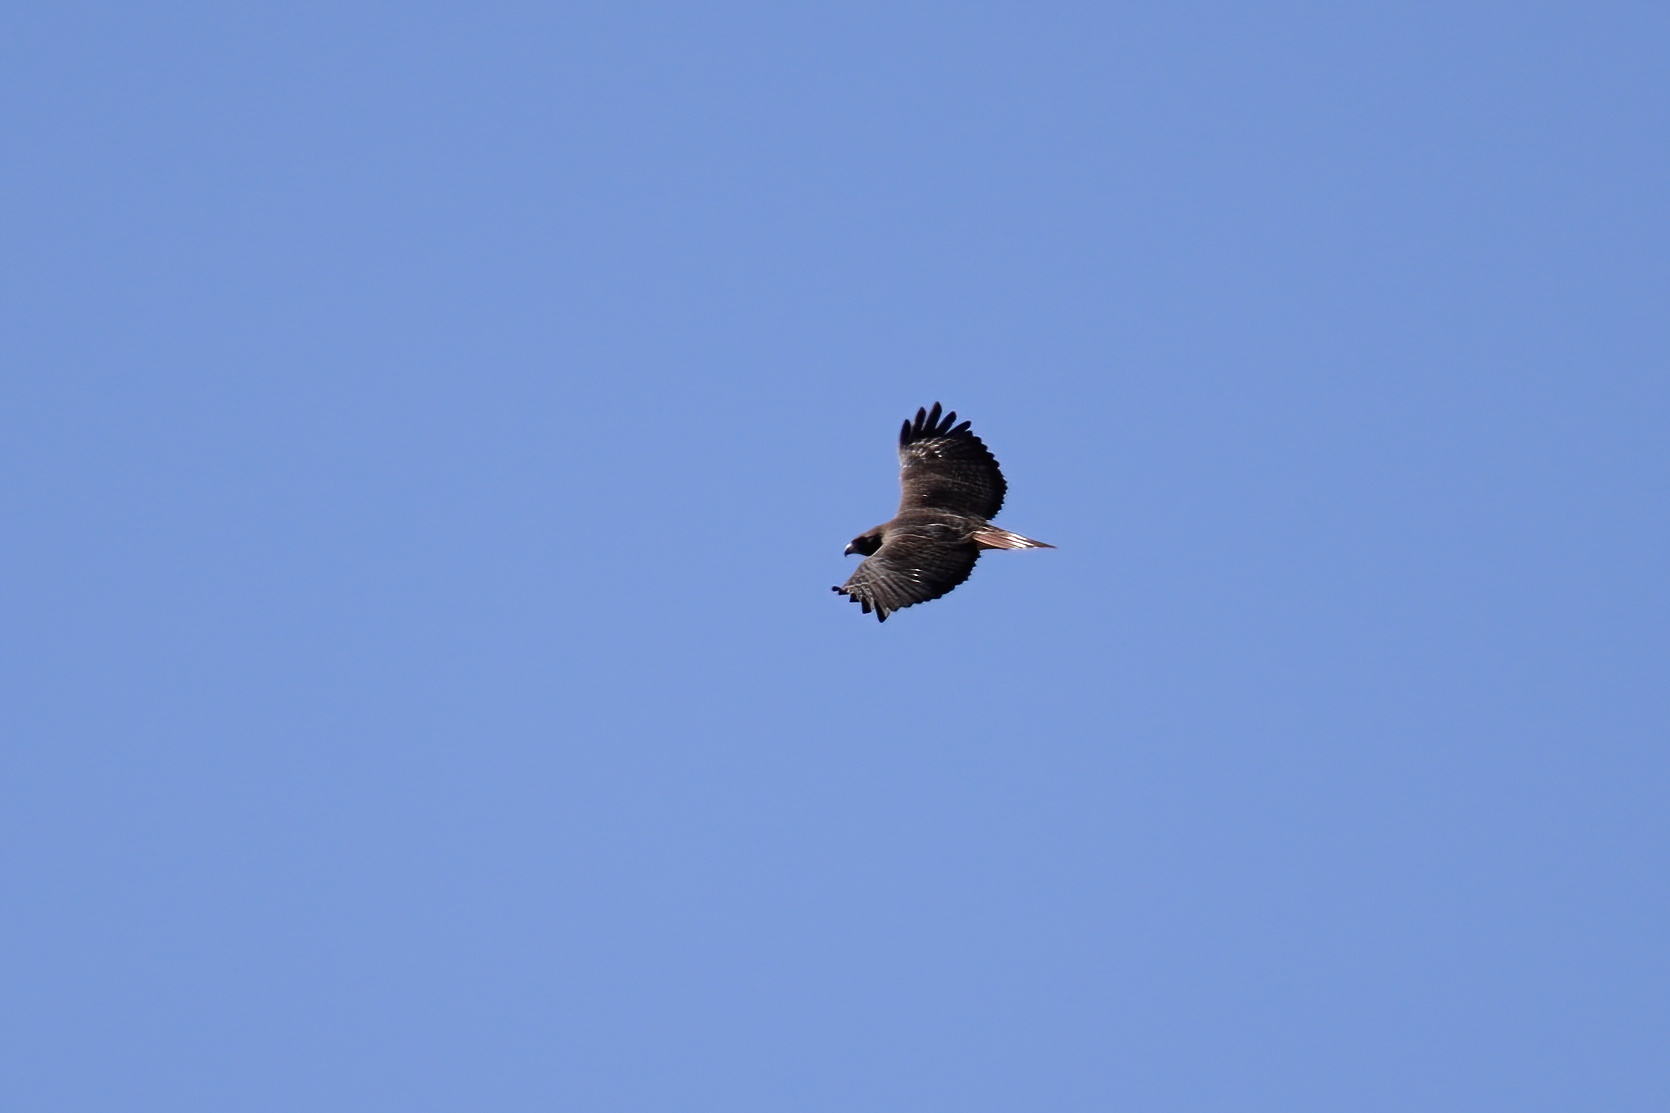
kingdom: Animalia
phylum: Chordata
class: Aves
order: Accipitriformes
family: Accipitridae
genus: Buteo
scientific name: Buteo jamaicensis
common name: Red-tailed hawk
